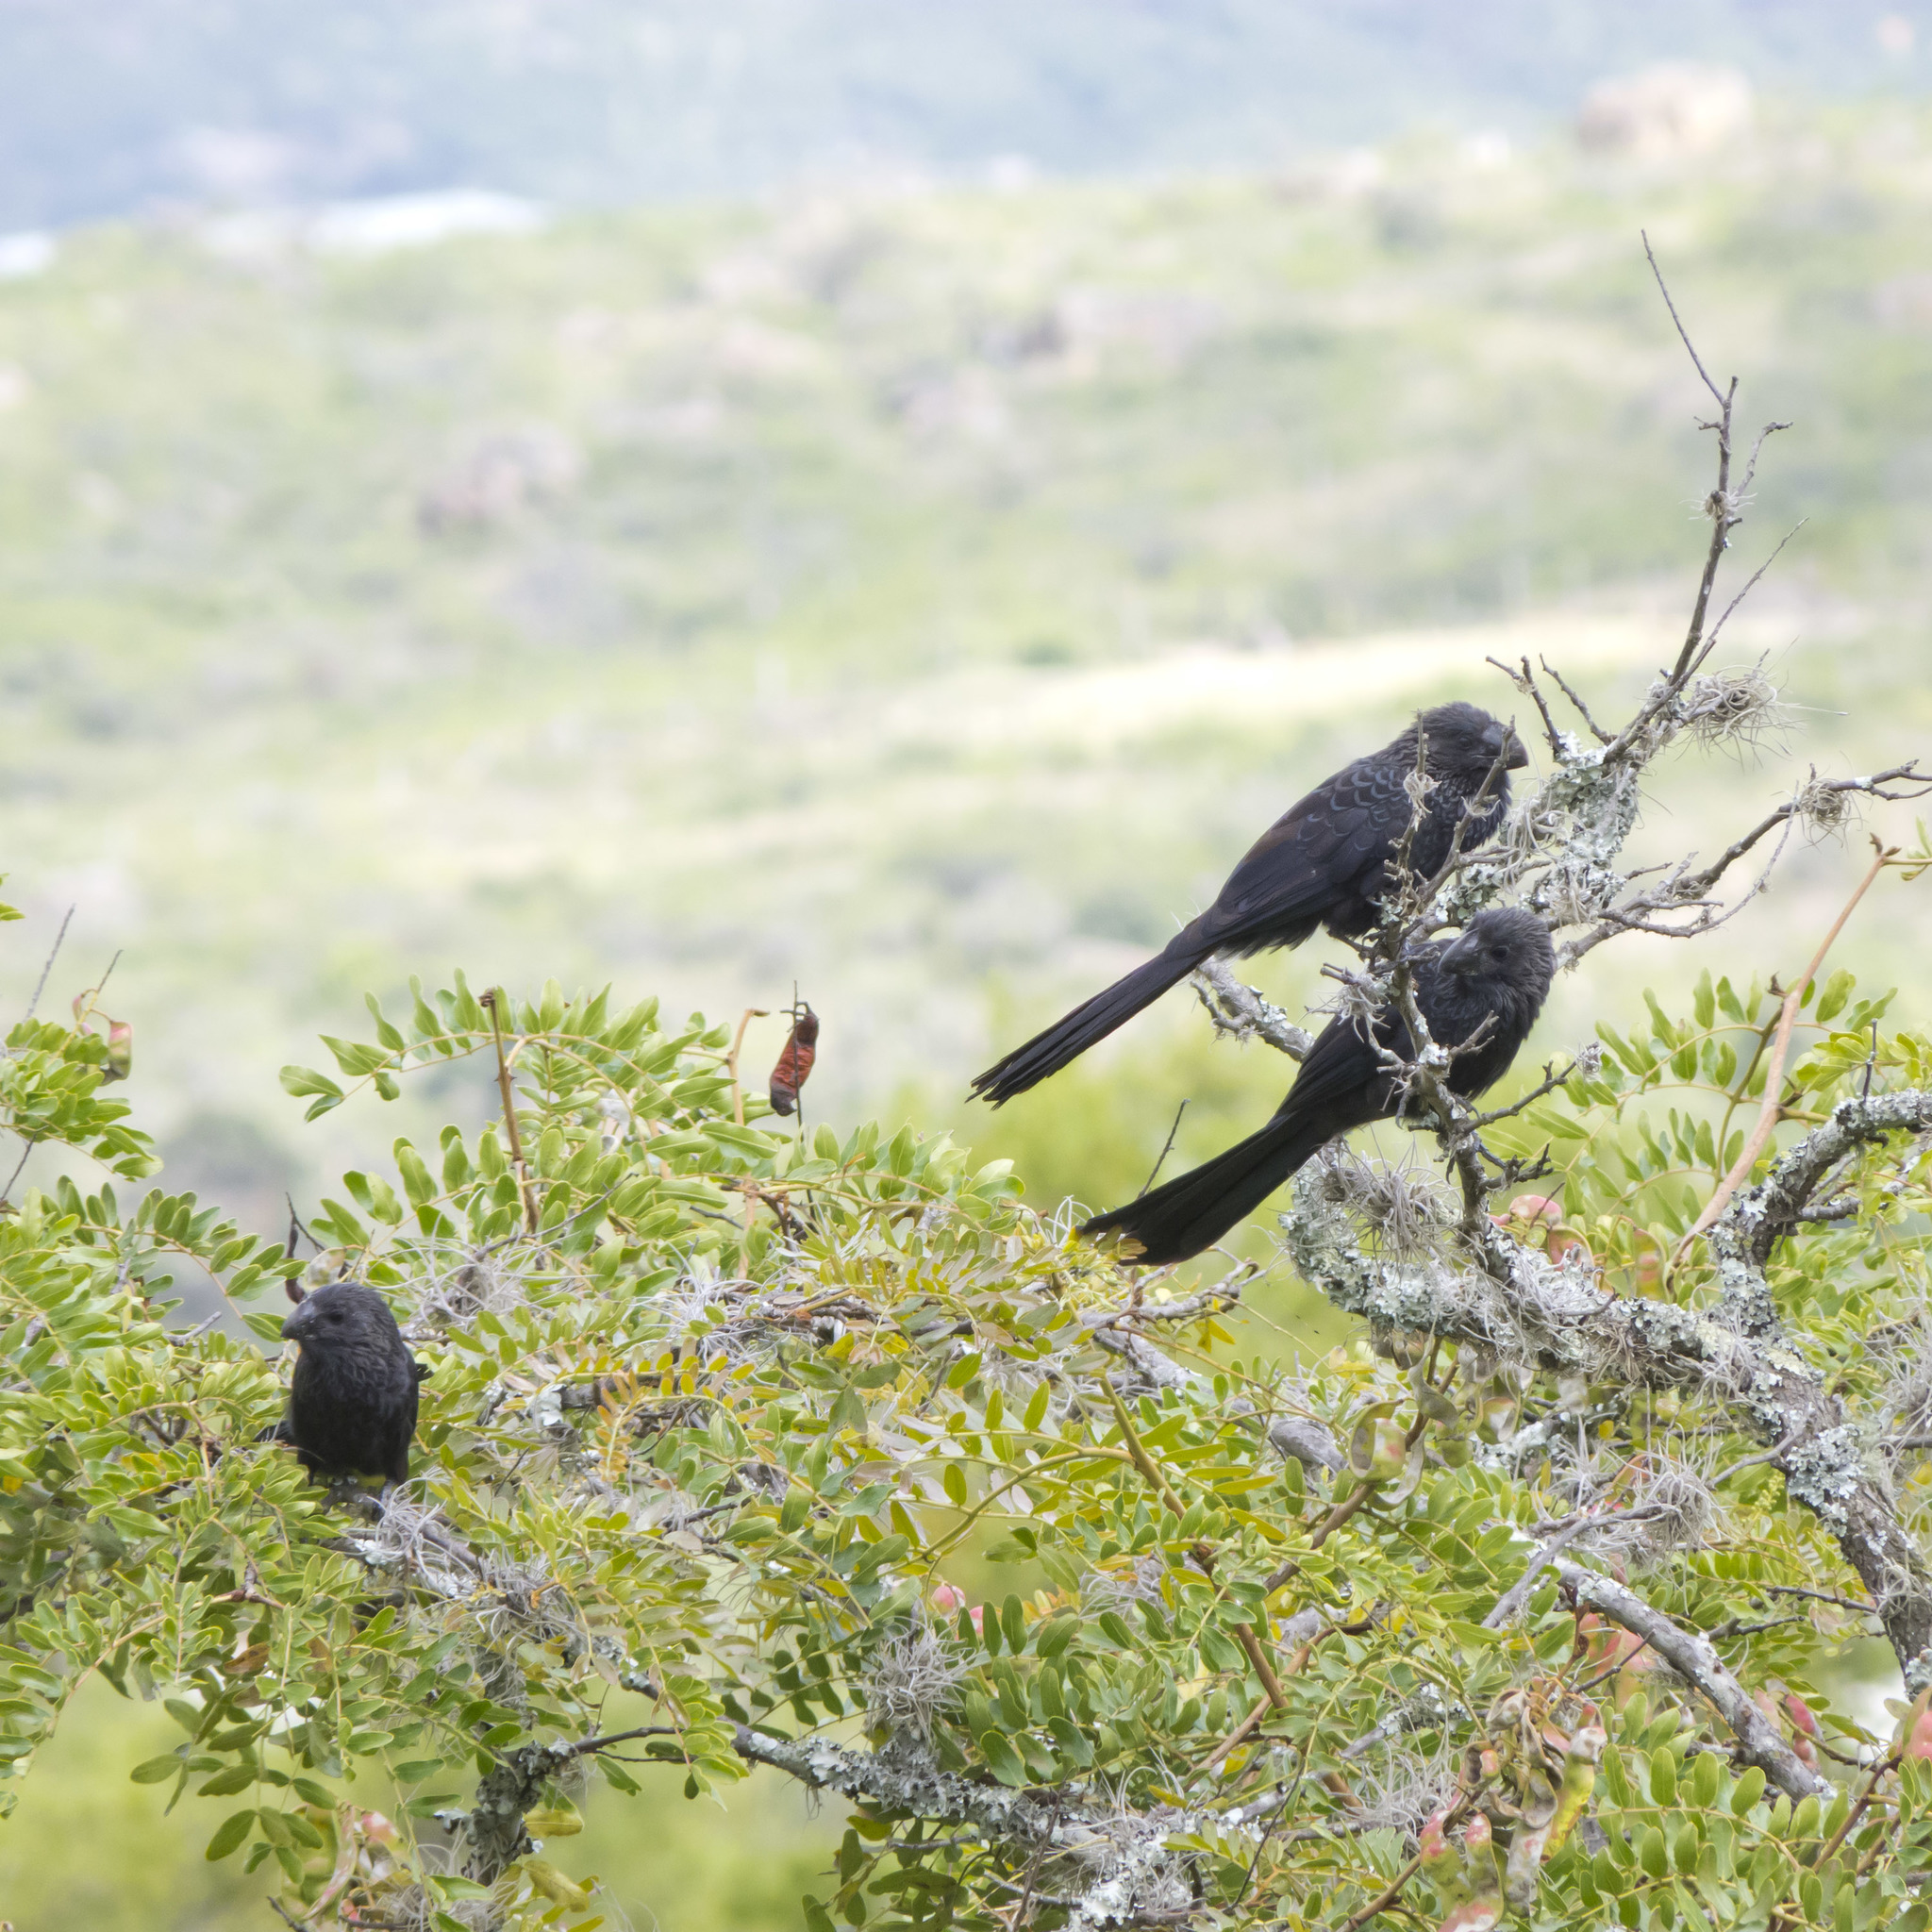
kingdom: Animalia
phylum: Chordata
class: Aves
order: Cuculiformes
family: Cuculidae
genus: Crotophaga
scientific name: Crotophaga ani
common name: Smooth-billed ani
